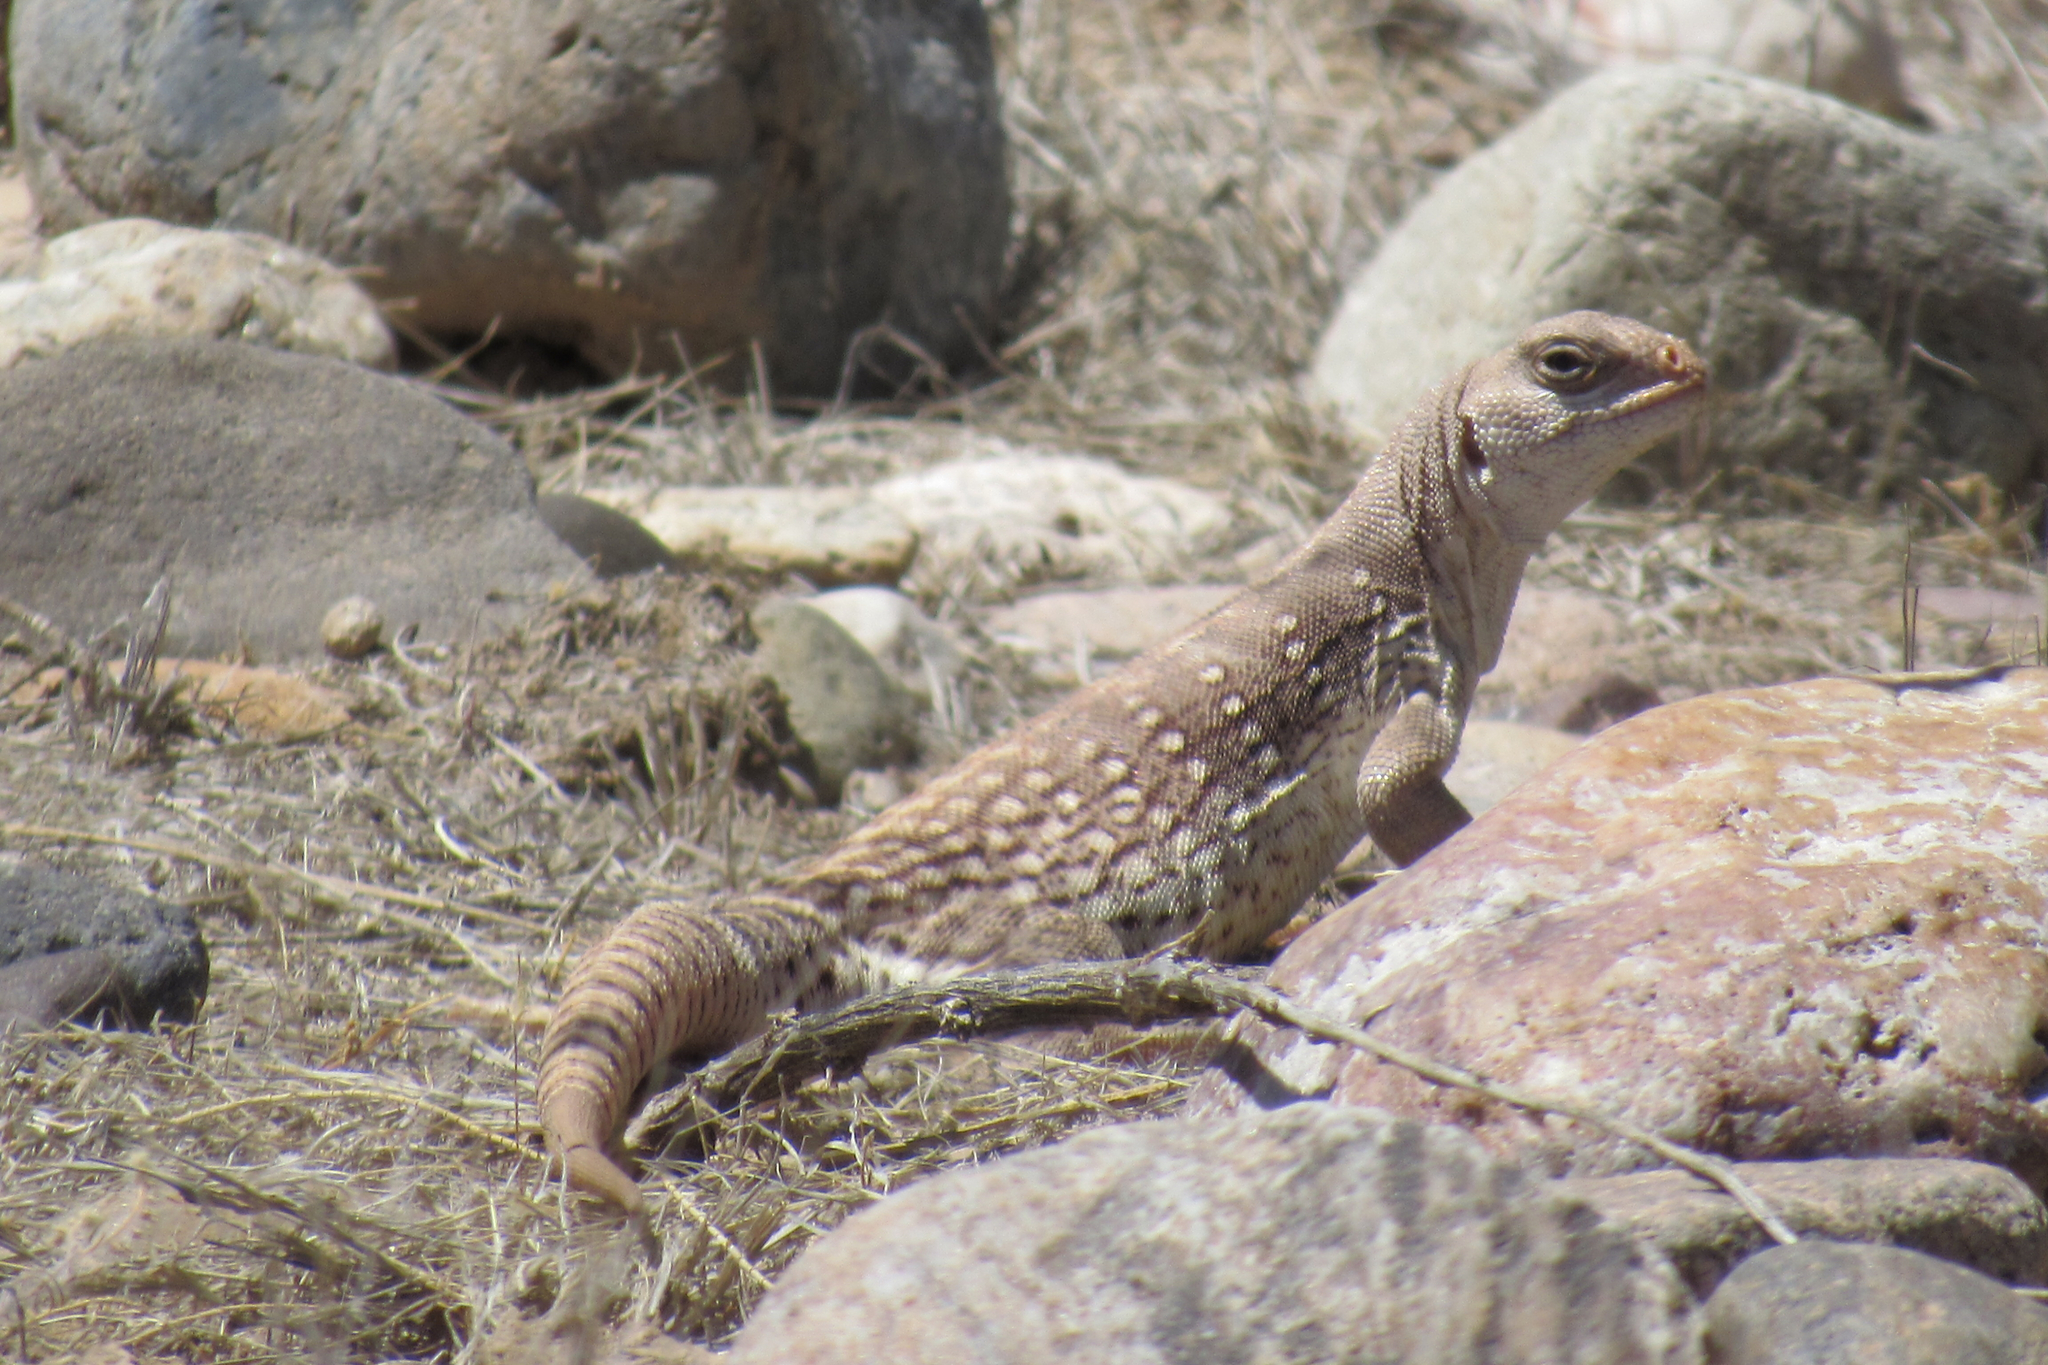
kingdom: Animalia
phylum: Chordata
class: Squamata
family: Iguanidae
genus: Dipsosaurus
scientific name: Dipsosaurus dorsalis
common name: Desert iguana
